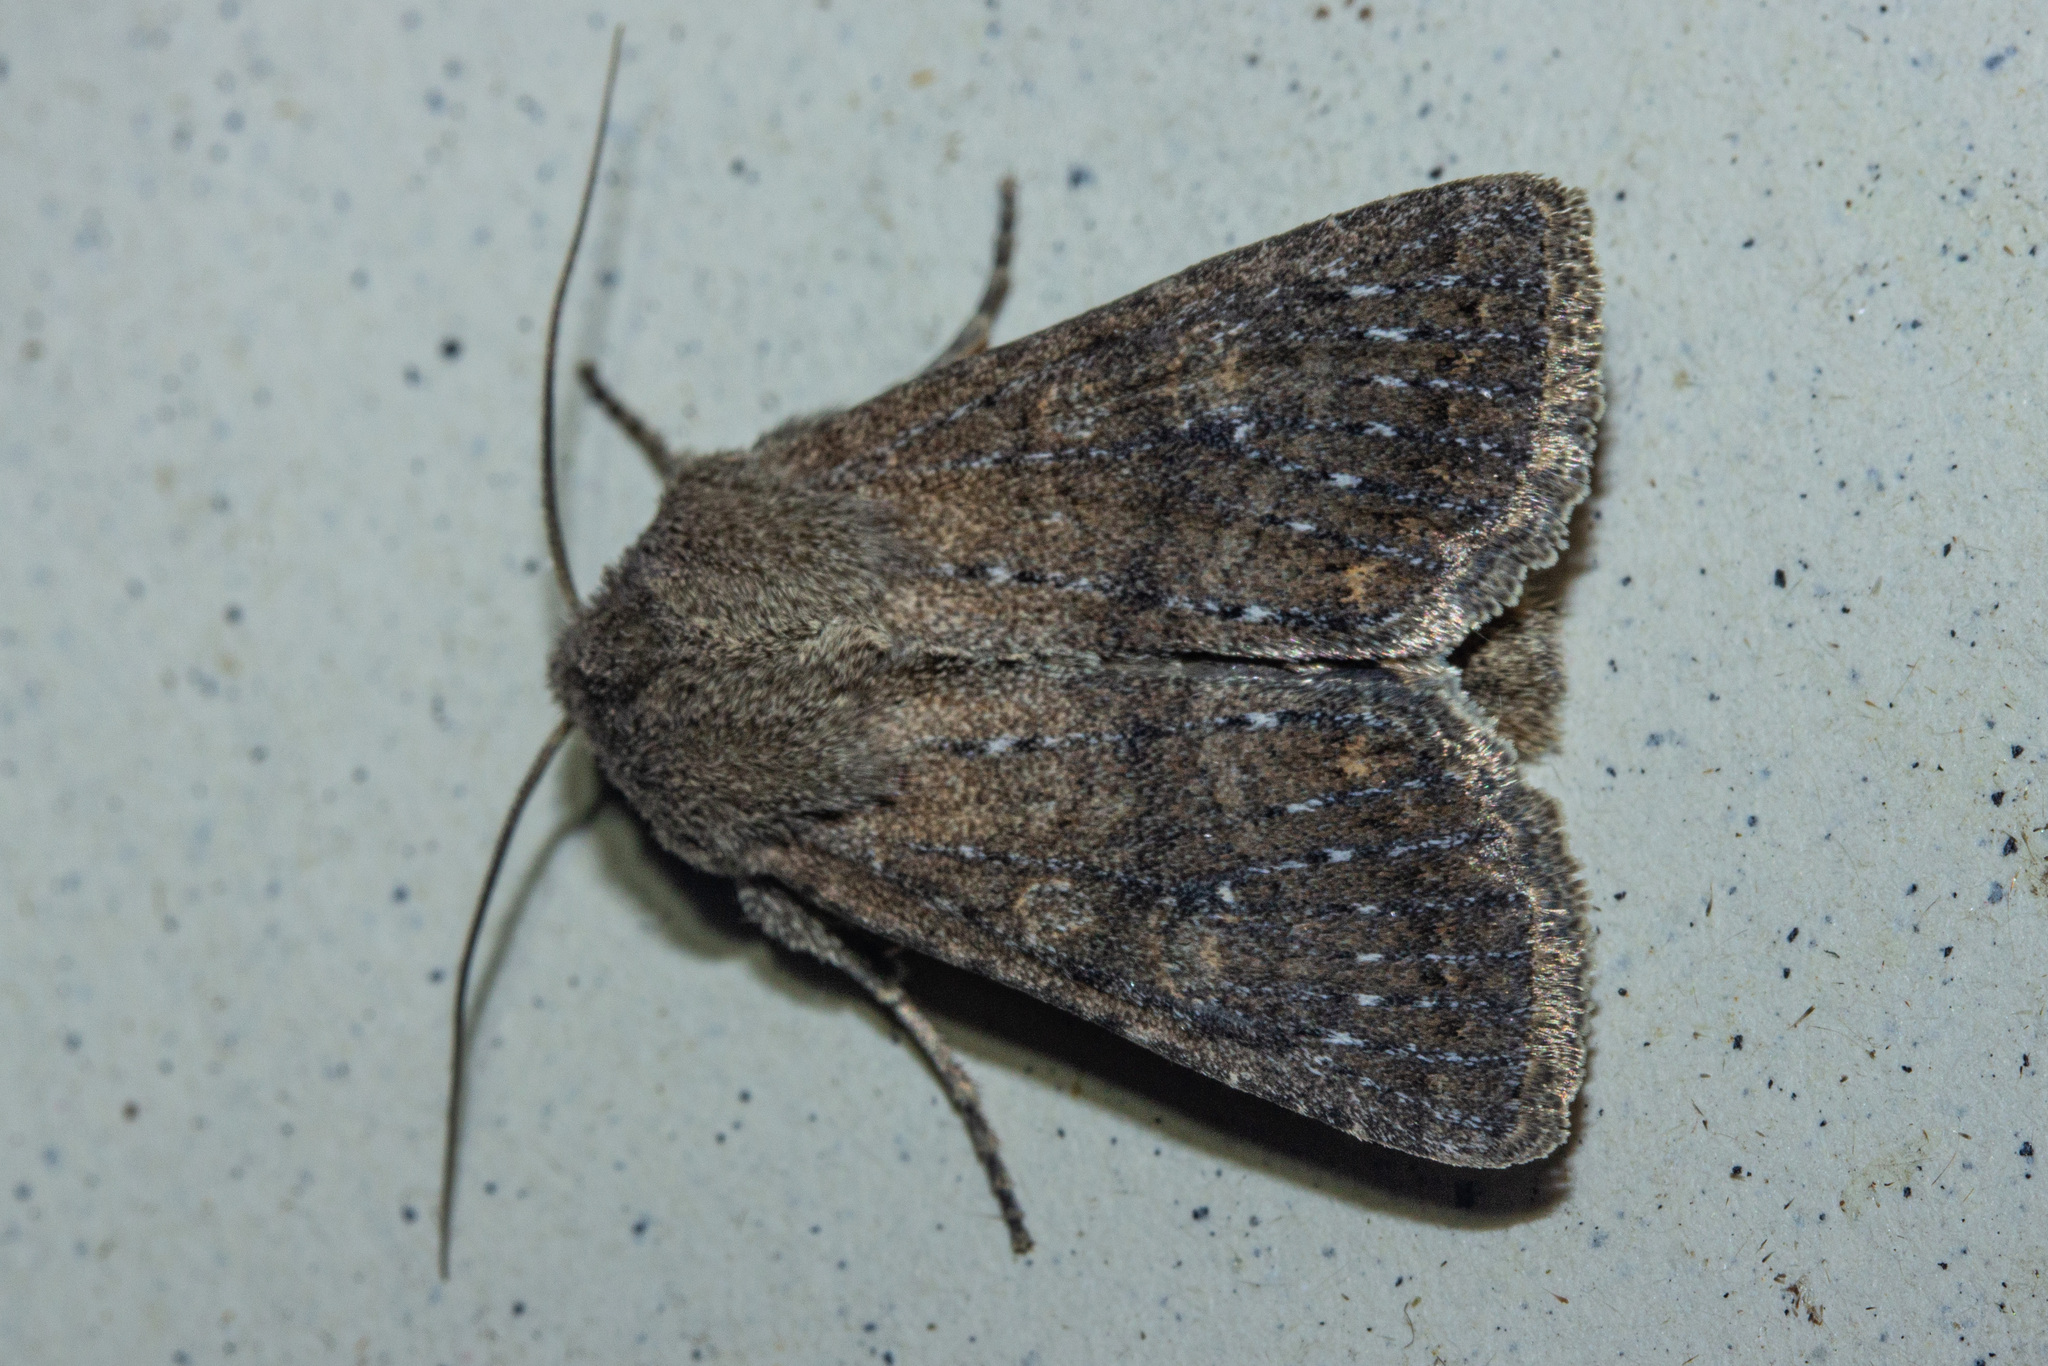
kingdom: Animalia
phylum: Arthropoda
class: Insecta
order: Lepidoptera
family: Noctuidae
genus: Physetica
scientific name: Physetica
